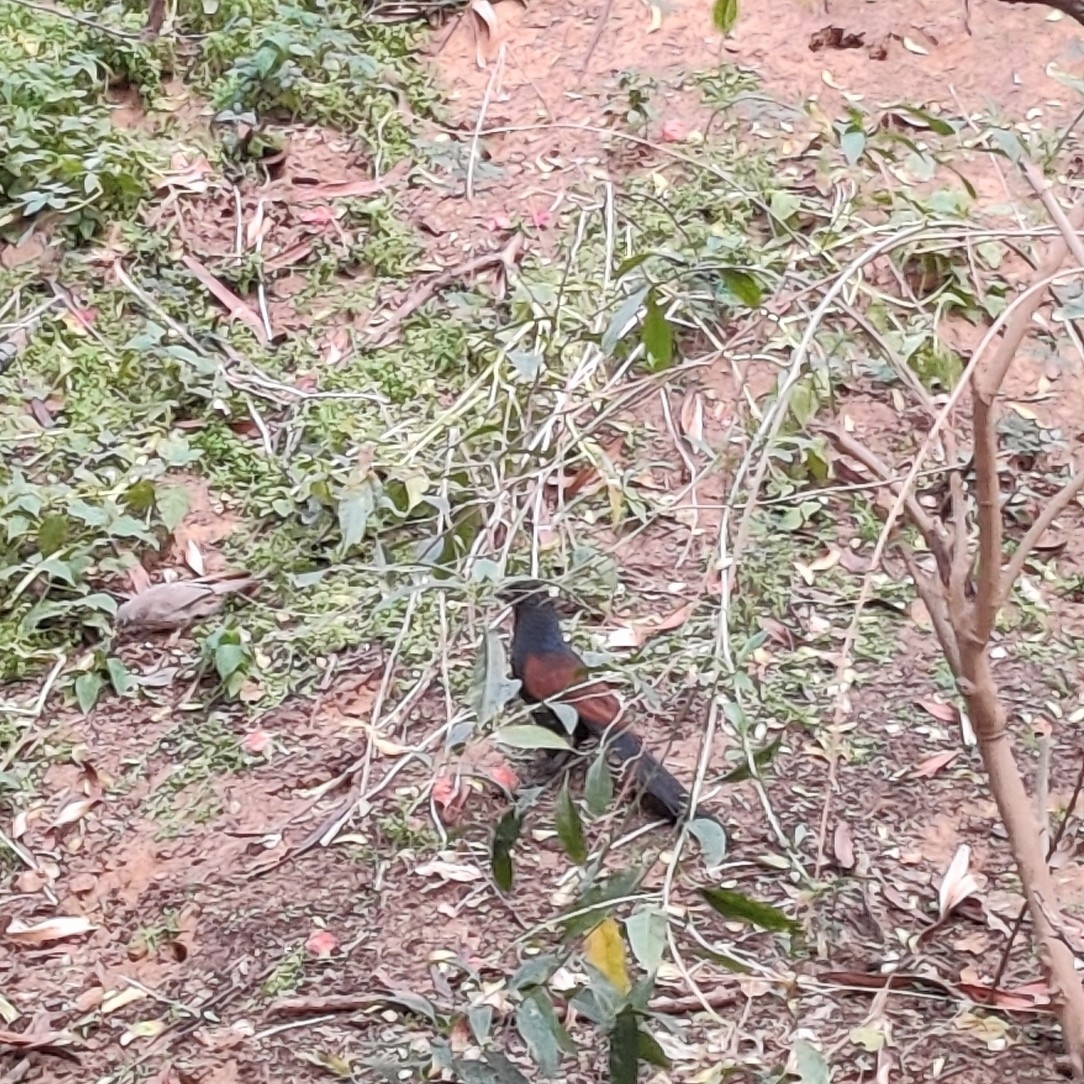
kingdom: Animalia
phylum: Chordata
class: Aves
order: Cuculiformes
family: Cuculidae
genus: Centropus
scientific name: Centropus sinensis
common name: Greater coucal
